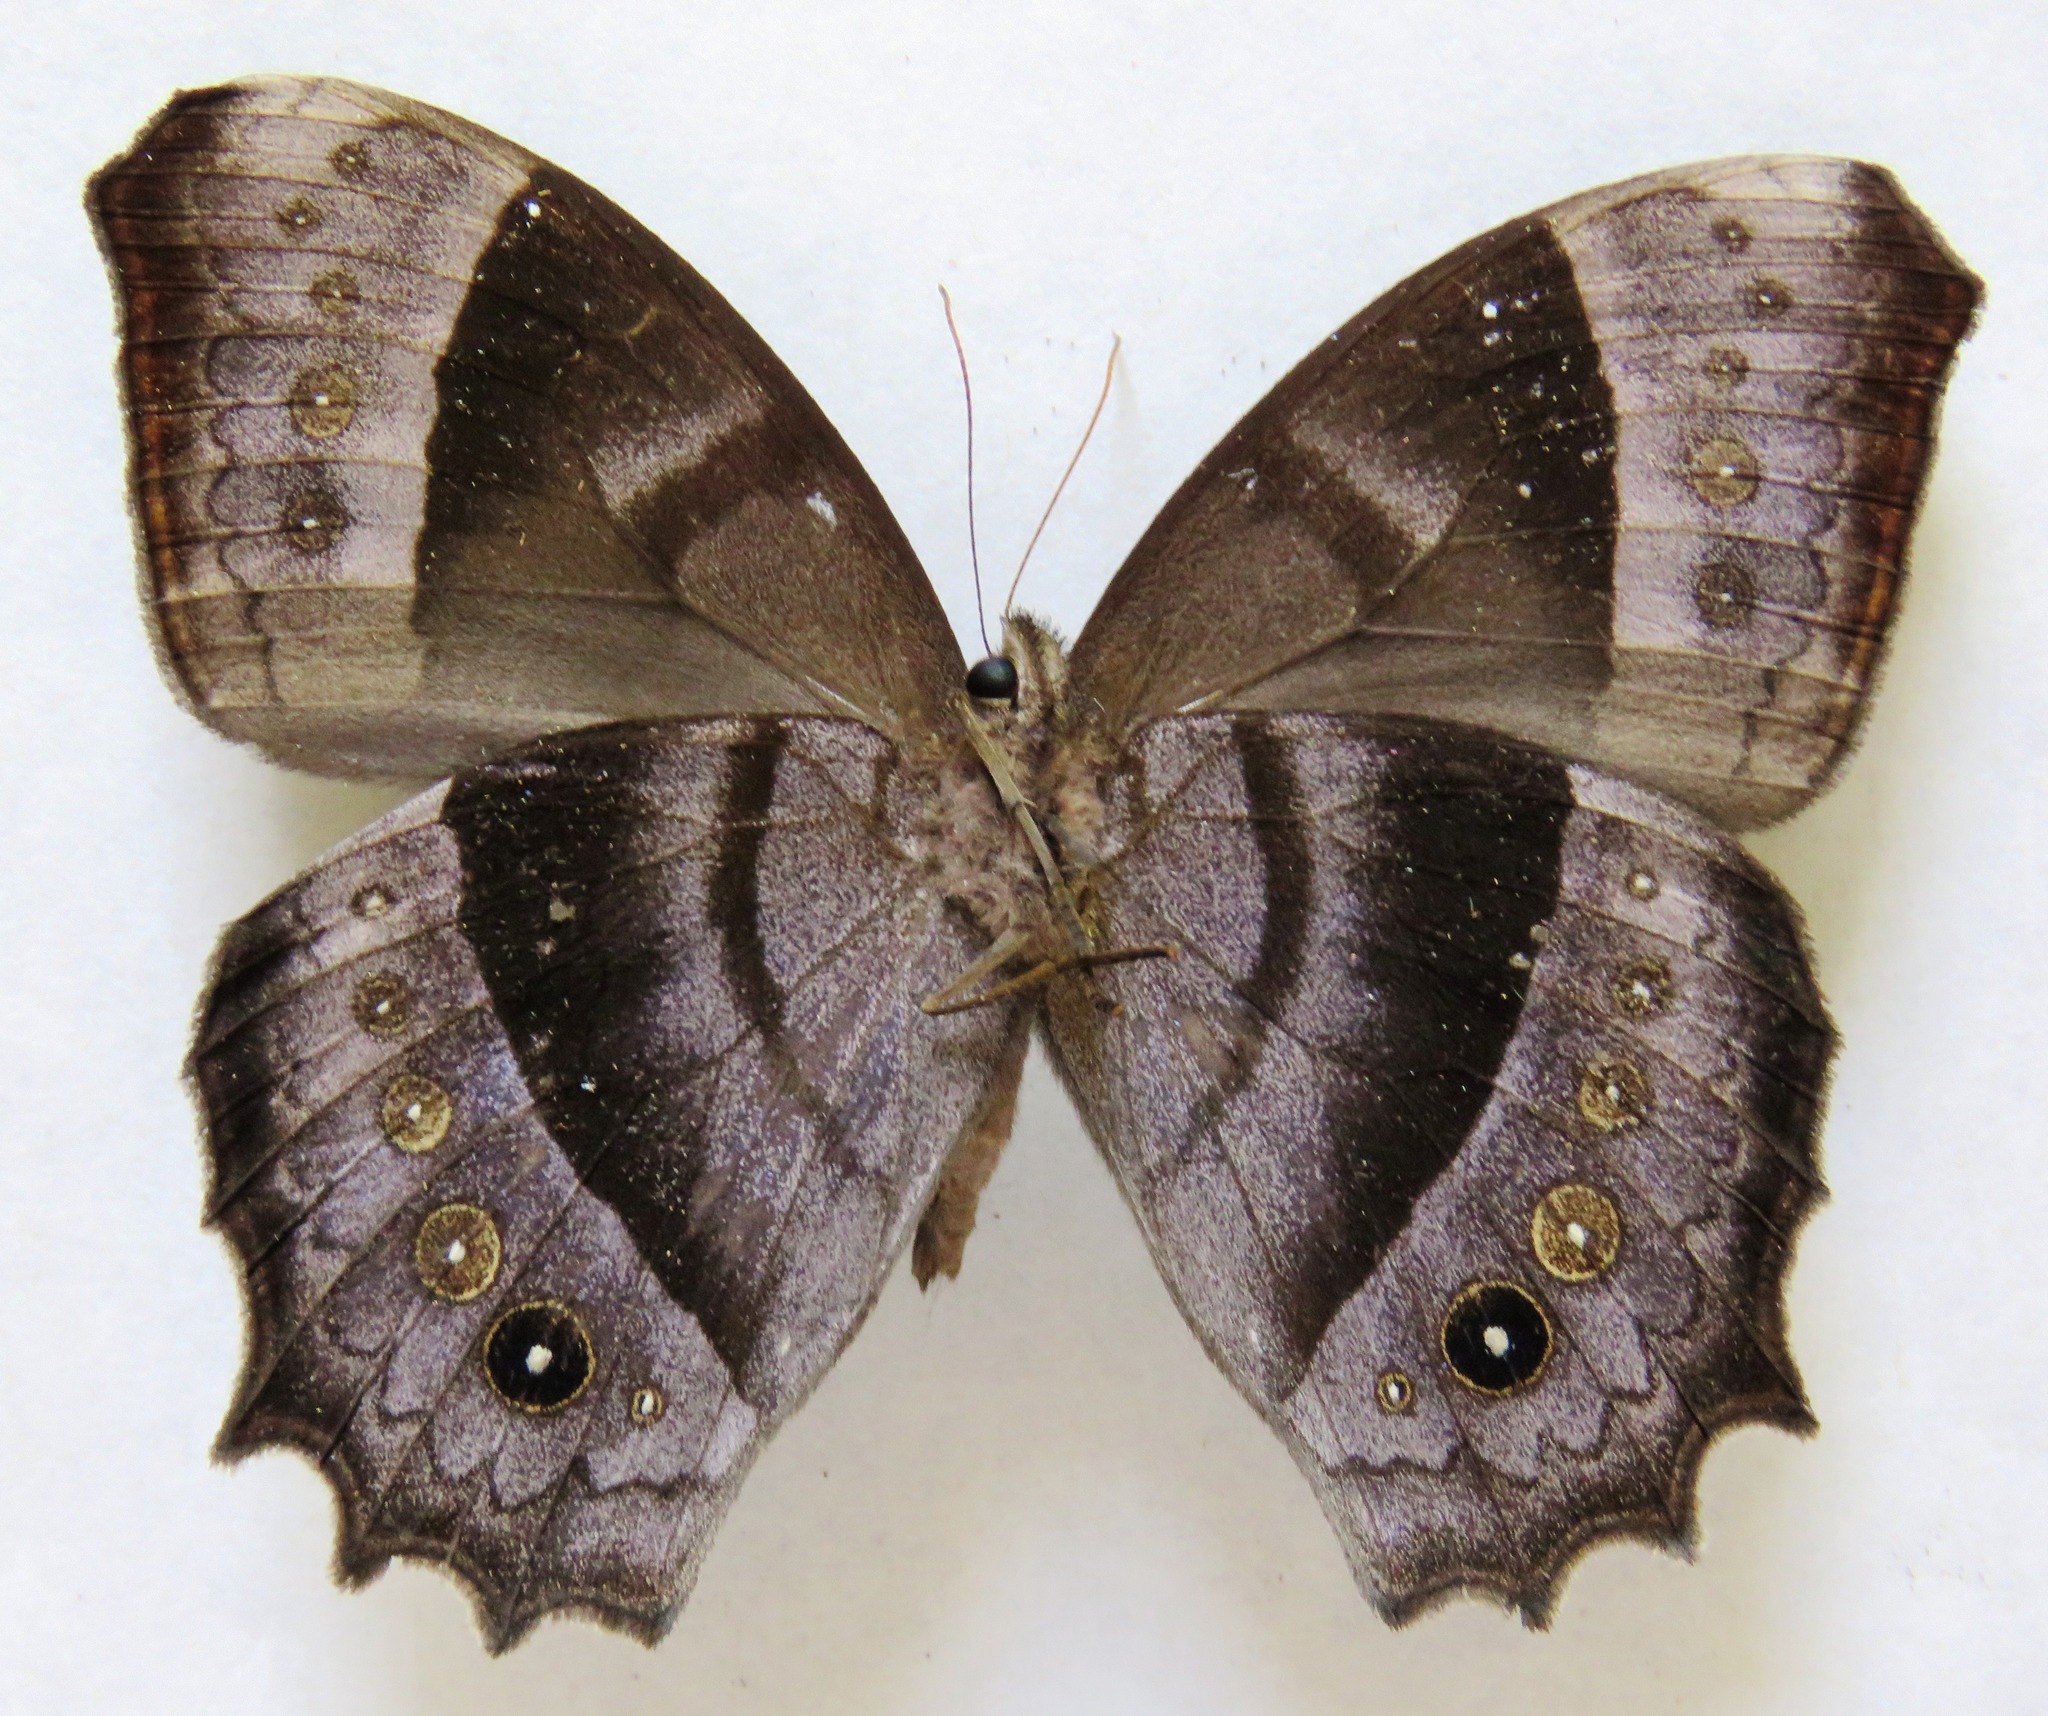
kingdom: Animalia
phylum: Arthropoda
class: Insecta
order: Lepidoptera
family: Nymphalidae
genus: Taygetis
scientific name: Taygetis inconspicua
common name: Inconspicuous satyr
